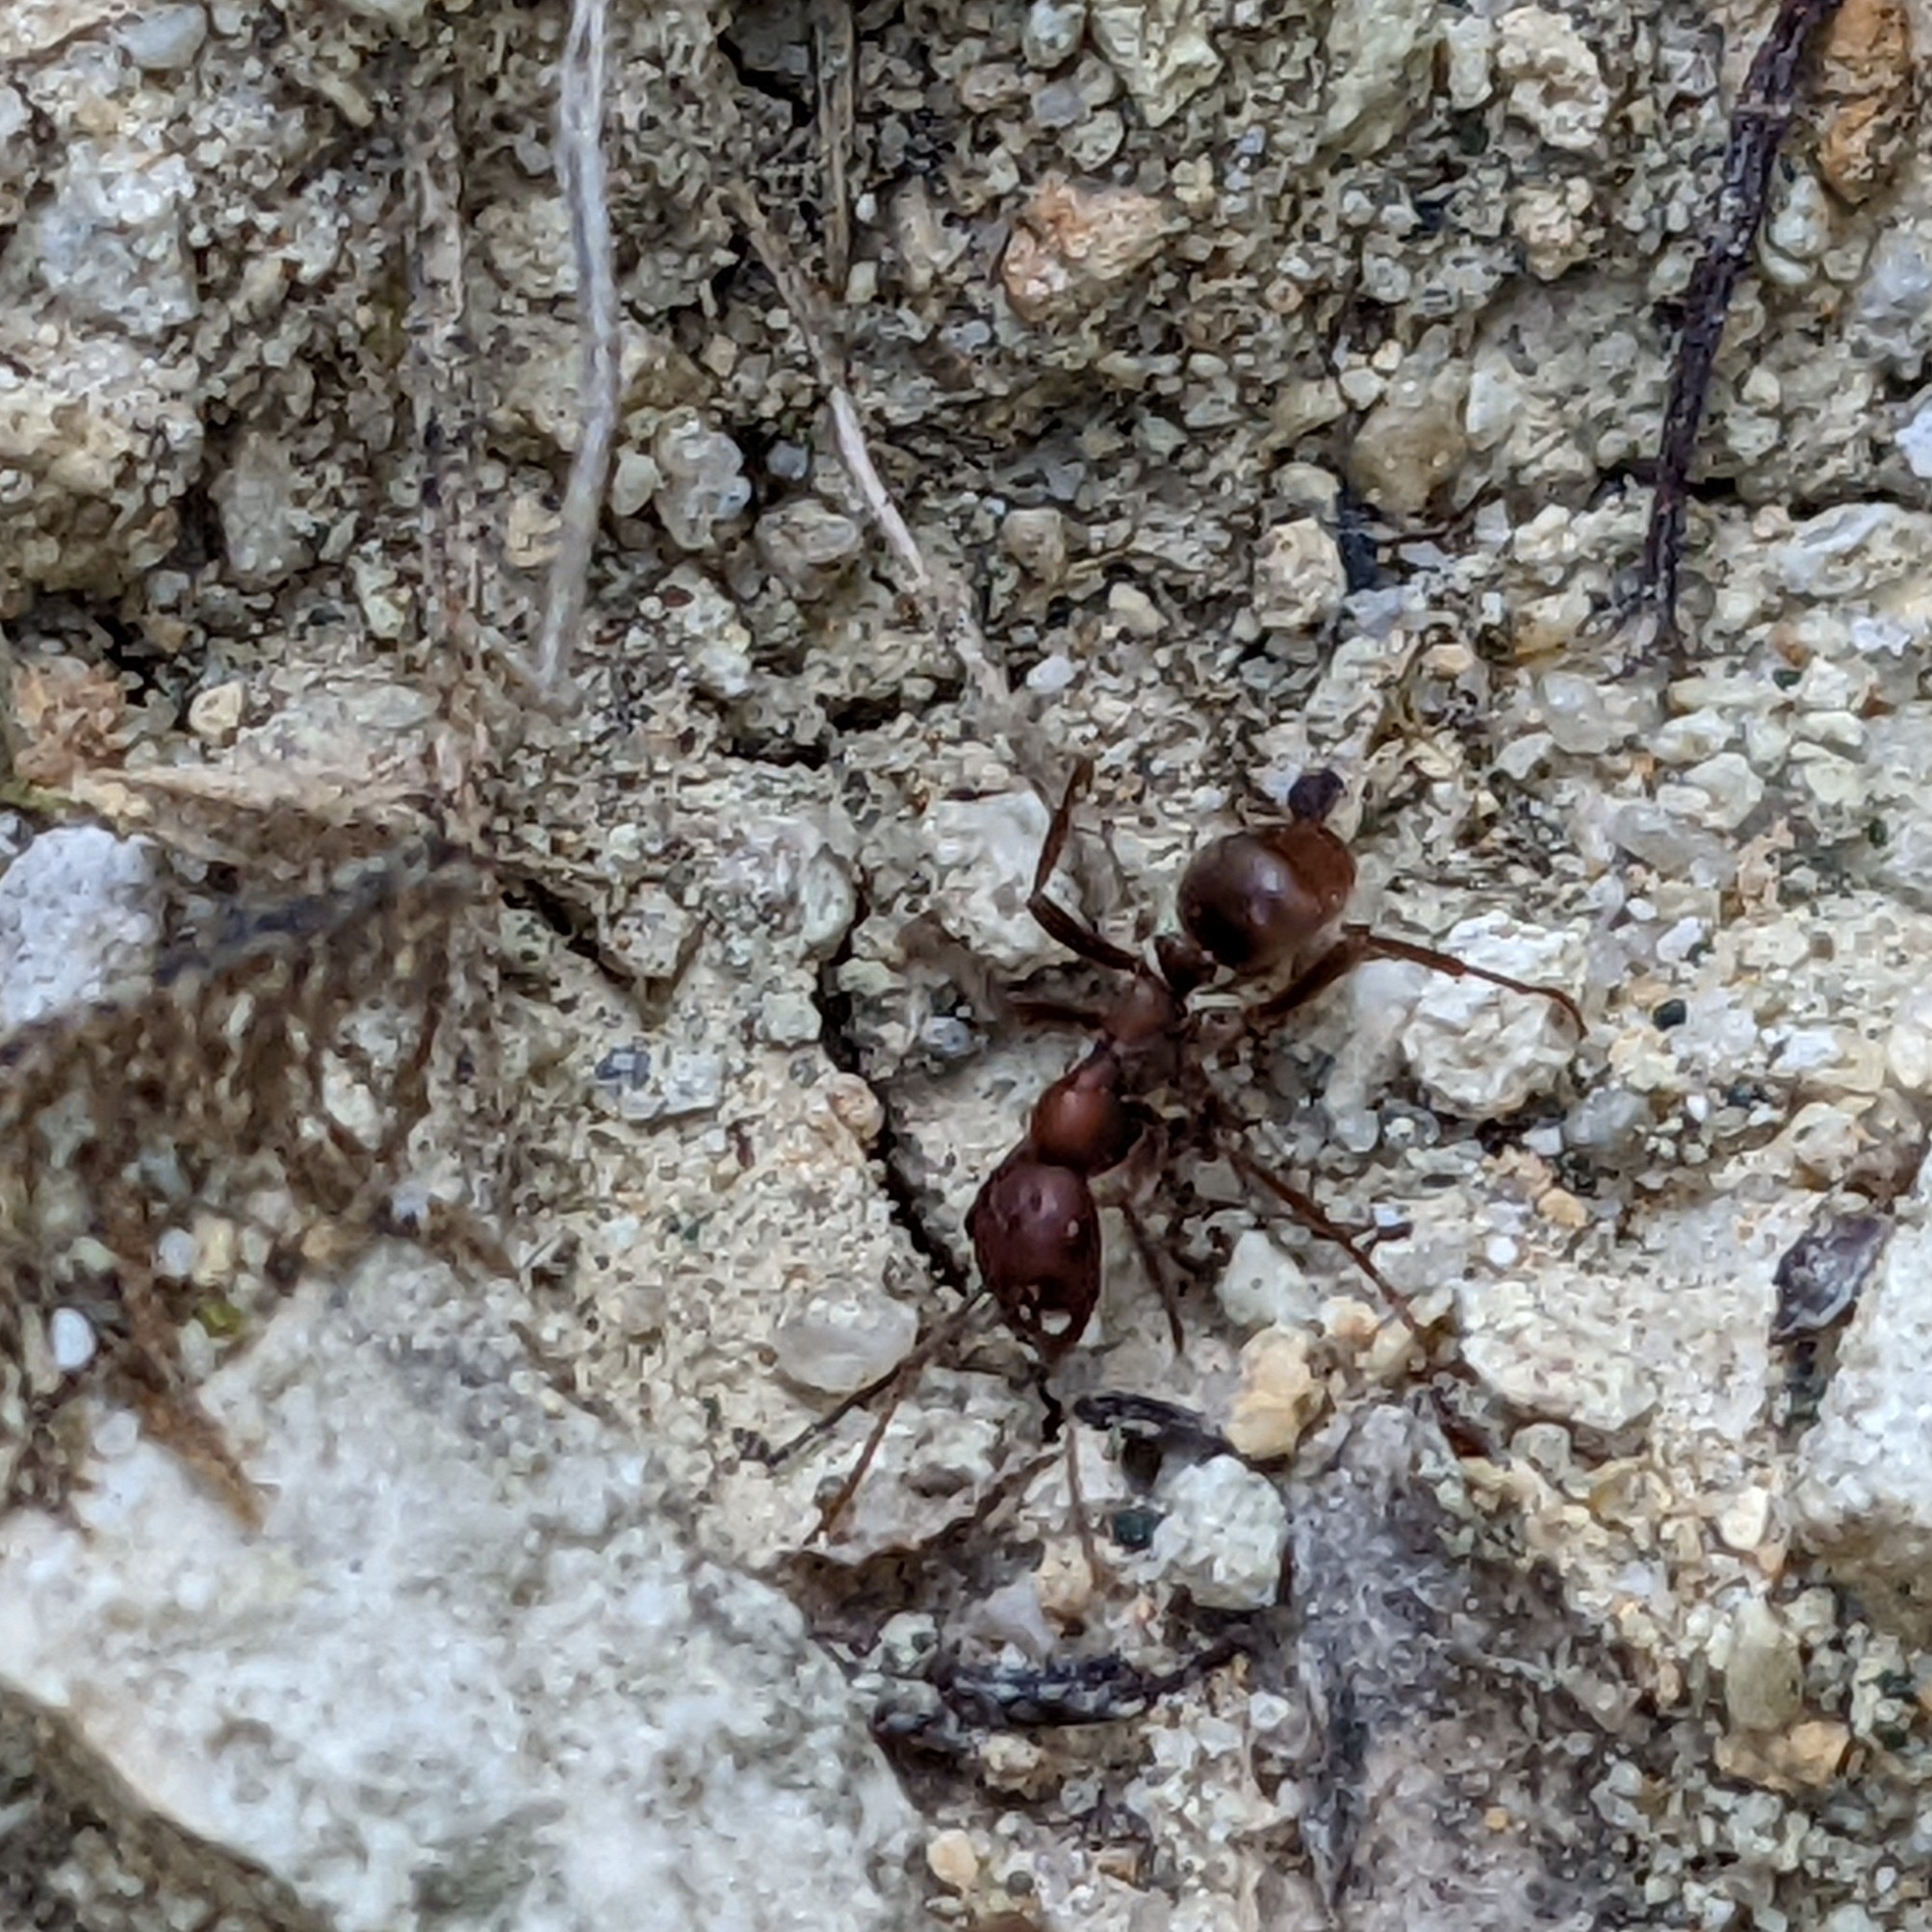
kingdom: Animalia
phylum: Arthropoda
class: Insecta
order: Hymenoptera
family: Formicidae
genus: Polyergus
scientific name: Polyergus rufescens
